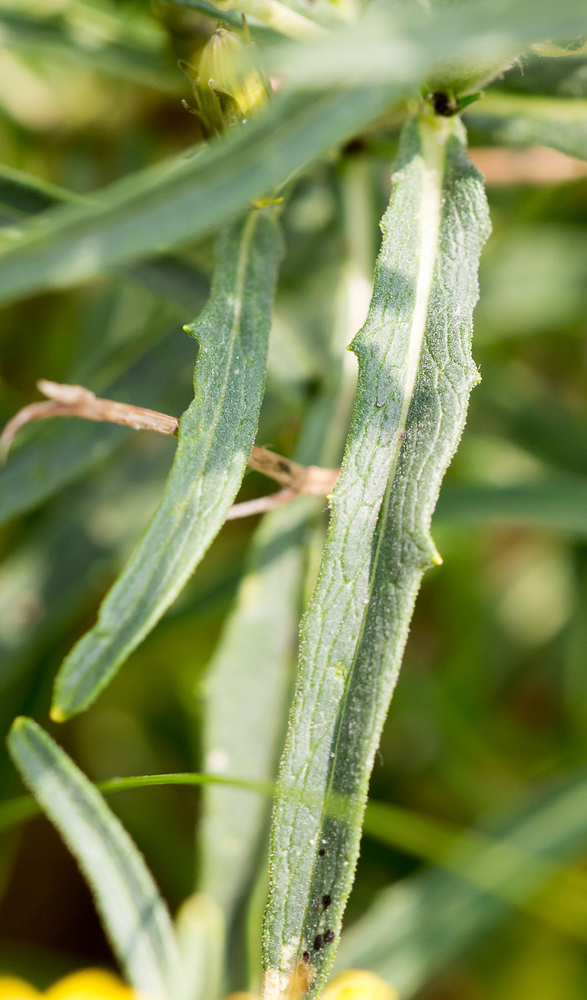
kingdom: Plantae
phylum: Tracheophyta
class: Magnoliopsida
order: Asterales
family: Asteraceae
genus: Hieracium
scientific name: Hieracium umbellatum
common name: Northern hawkweed
